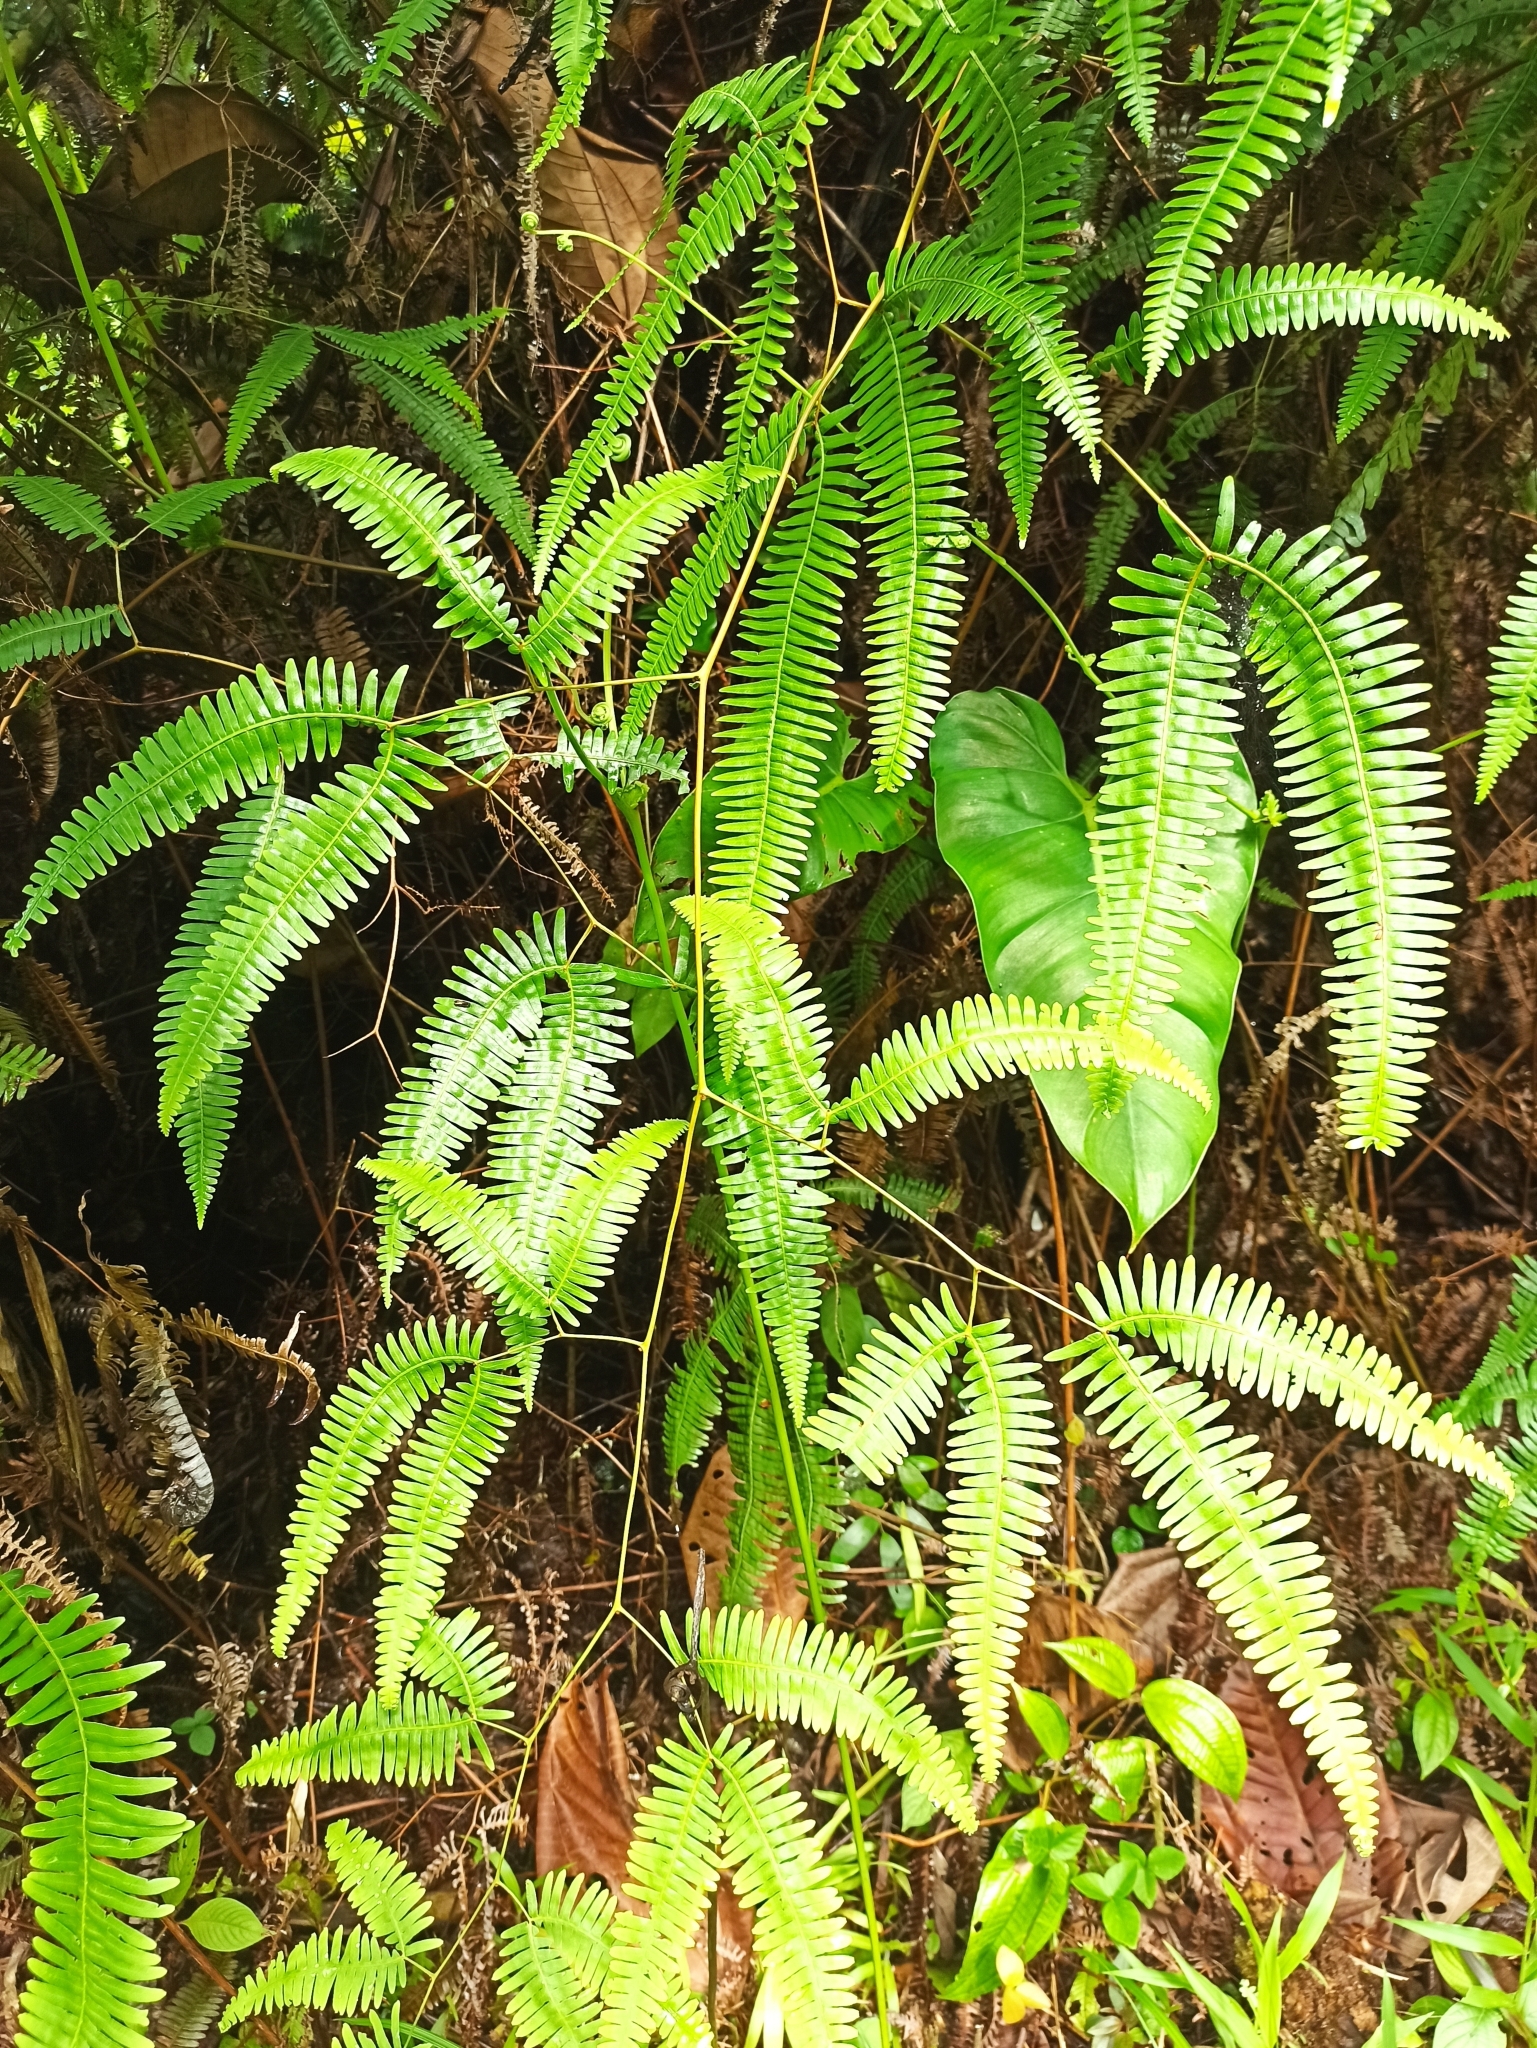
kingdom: Plantae
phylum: Tracheophyta
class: Polypodiopsida
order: Gleicheniales
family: Gleicheniaceae
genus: Gleichenella
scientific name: Gleichenella pectinata
